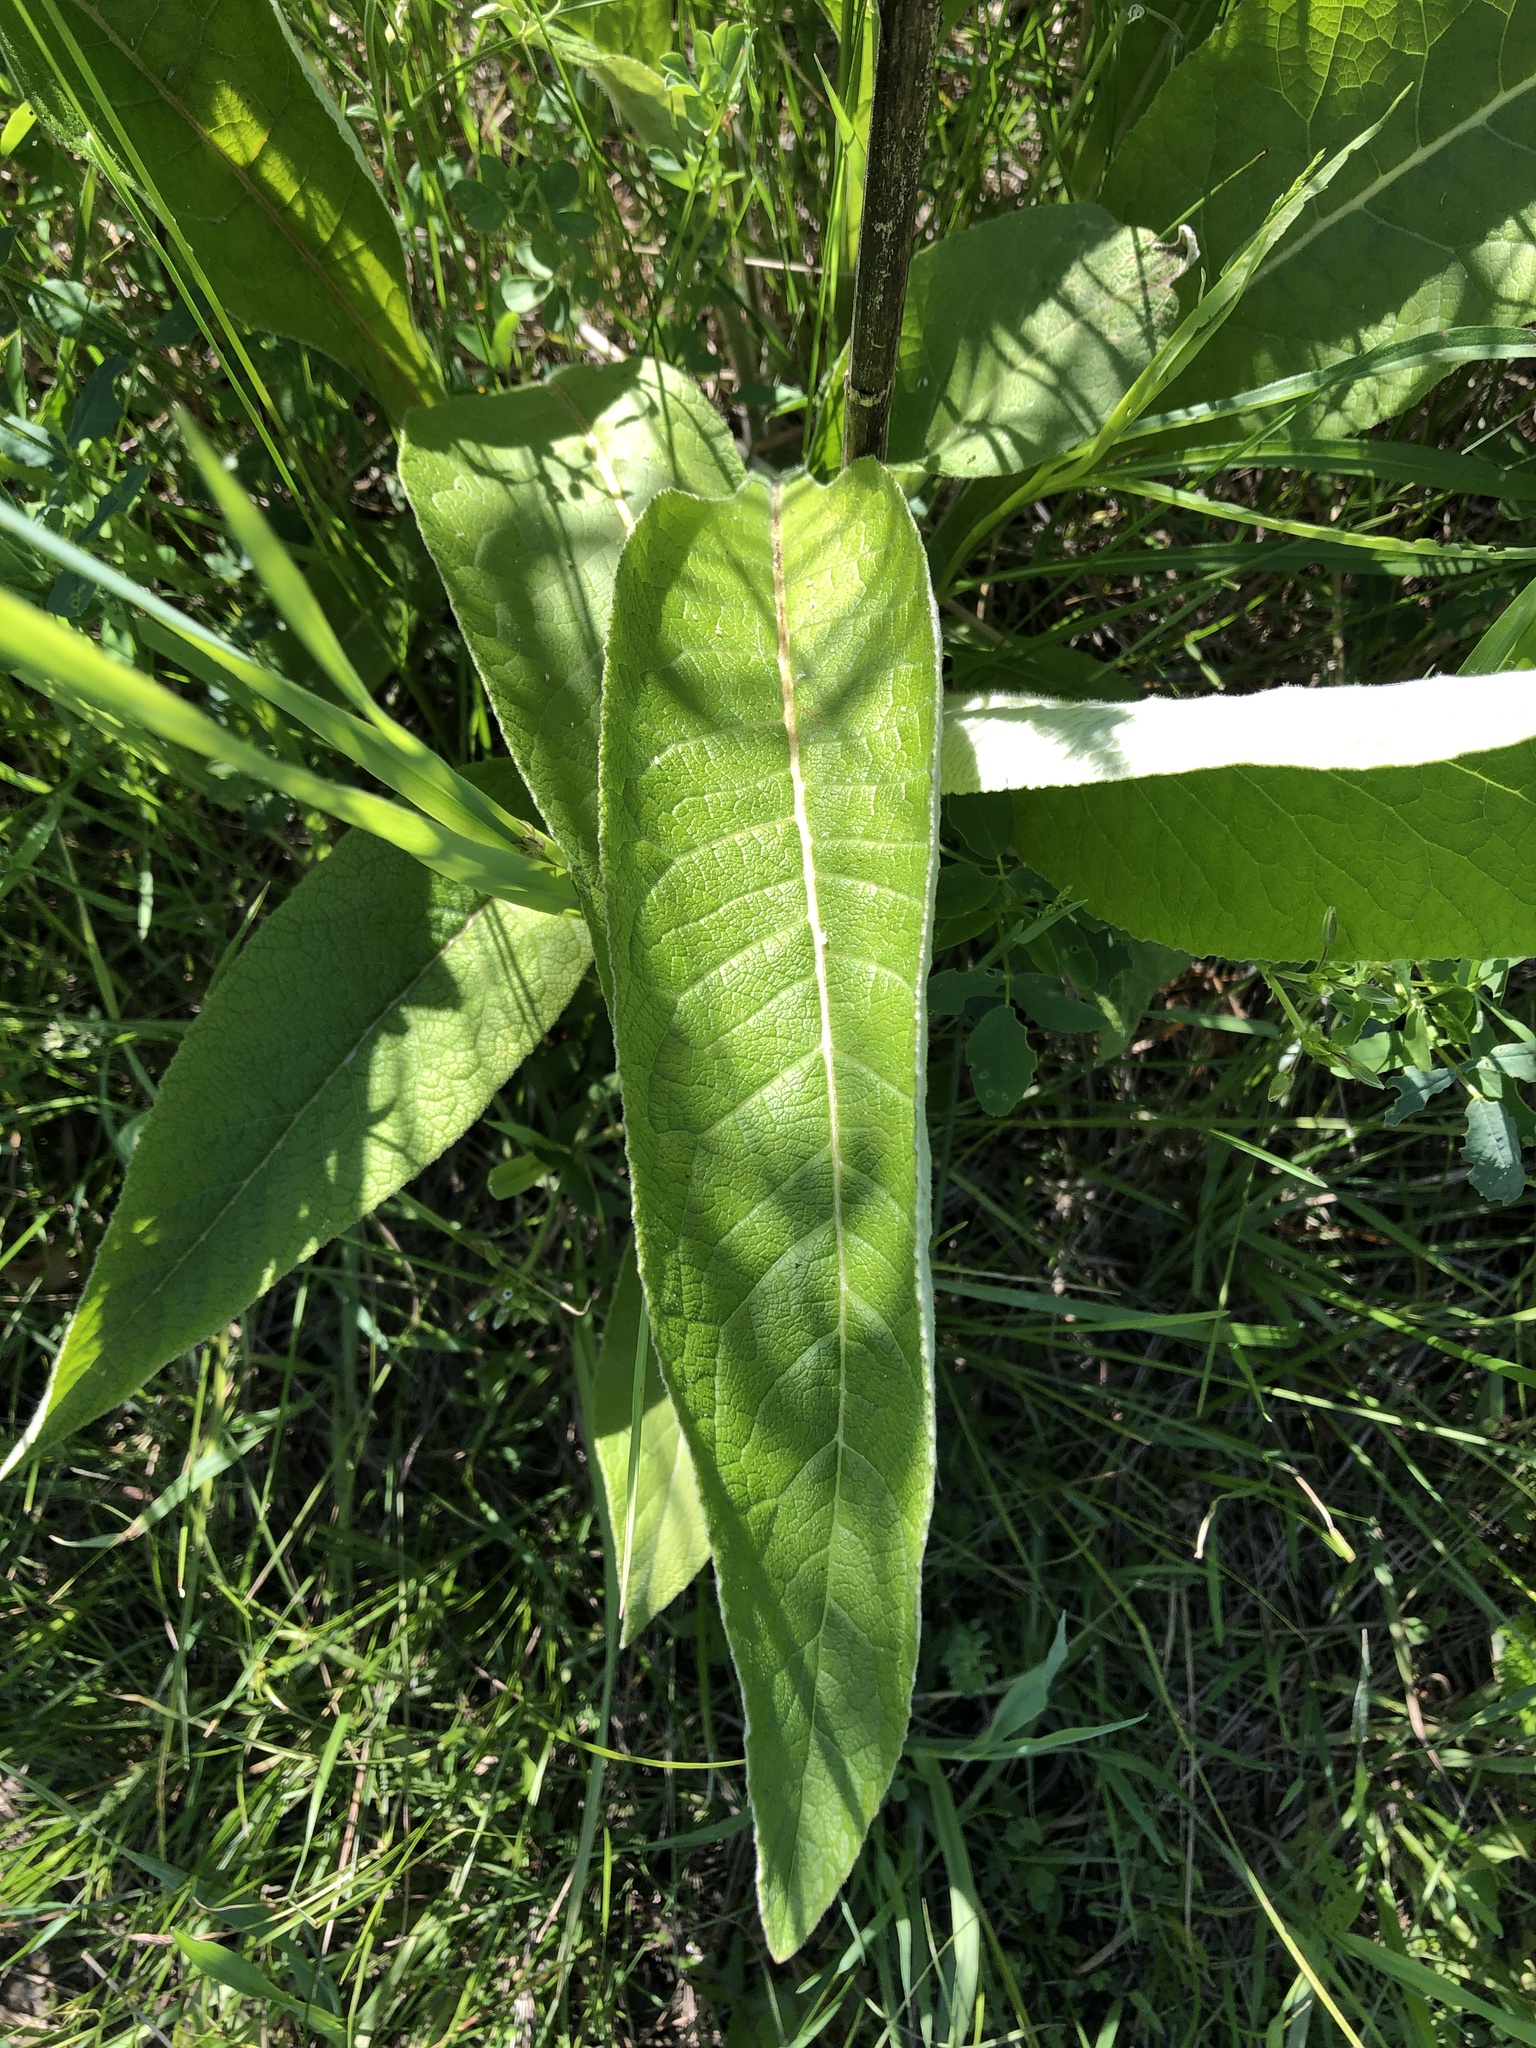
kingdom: Plantae
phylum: Tracheophyta
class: Magnoliopsida
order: Asterales
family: Asteraceae
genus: Inula
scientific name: Inula helenium
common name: Elecampane
